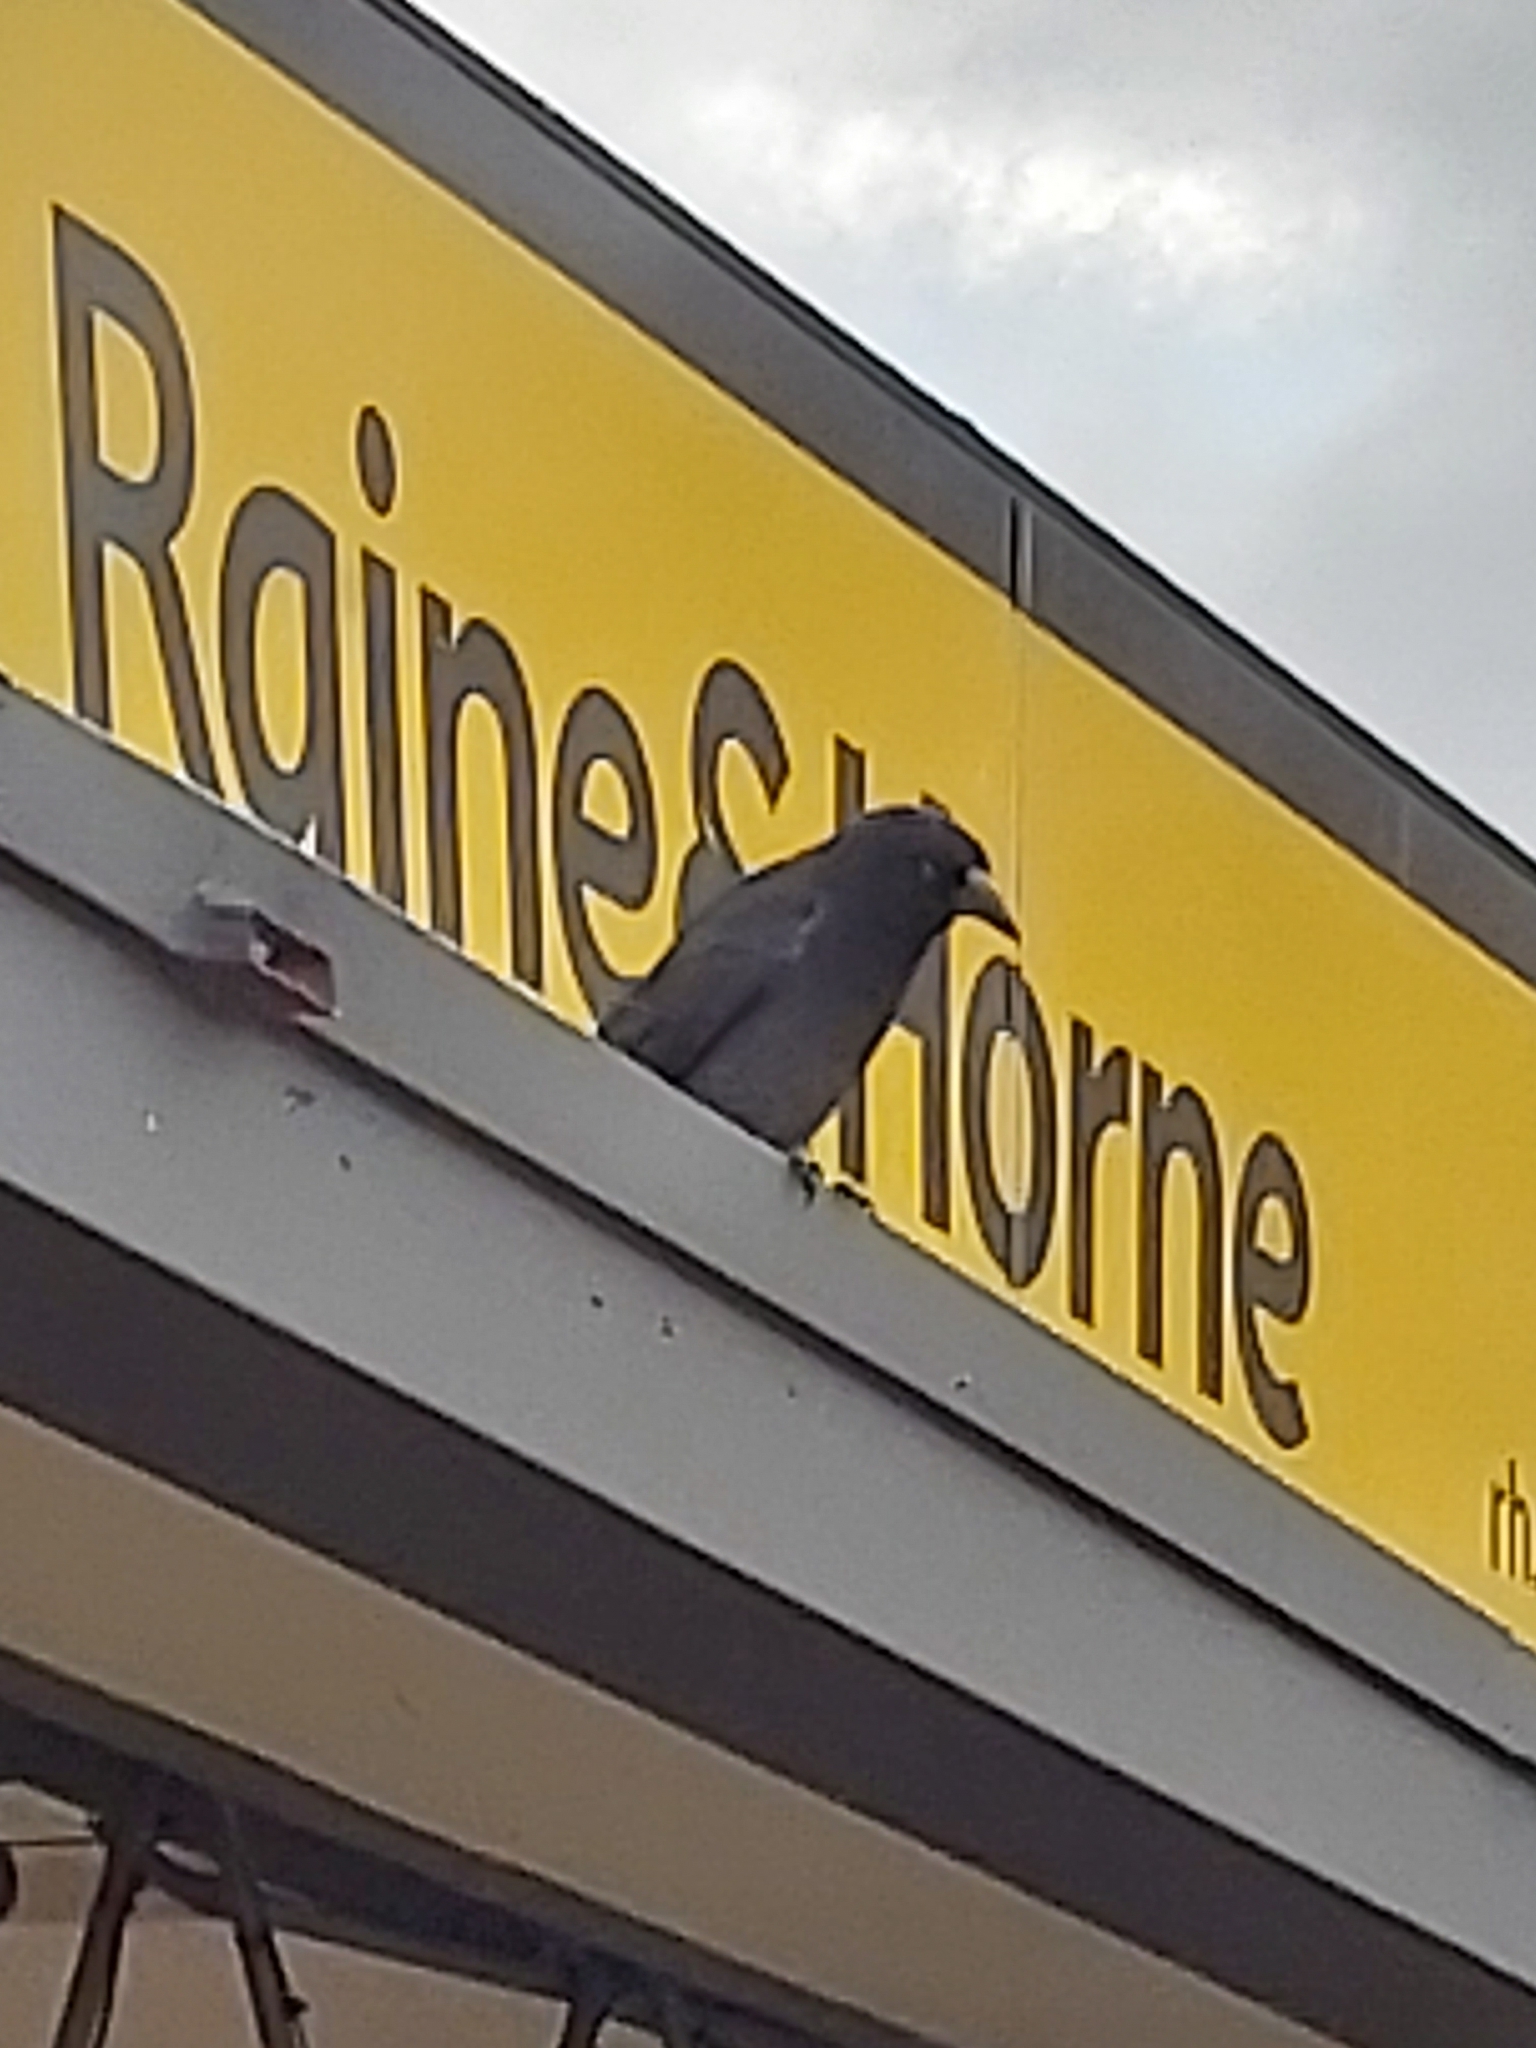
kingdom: Animalia
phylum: Chordata
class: Aves
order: Passeriformes
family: Cracticidae
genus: Strepera
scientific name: Strepera graculina
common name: Pied currawong
